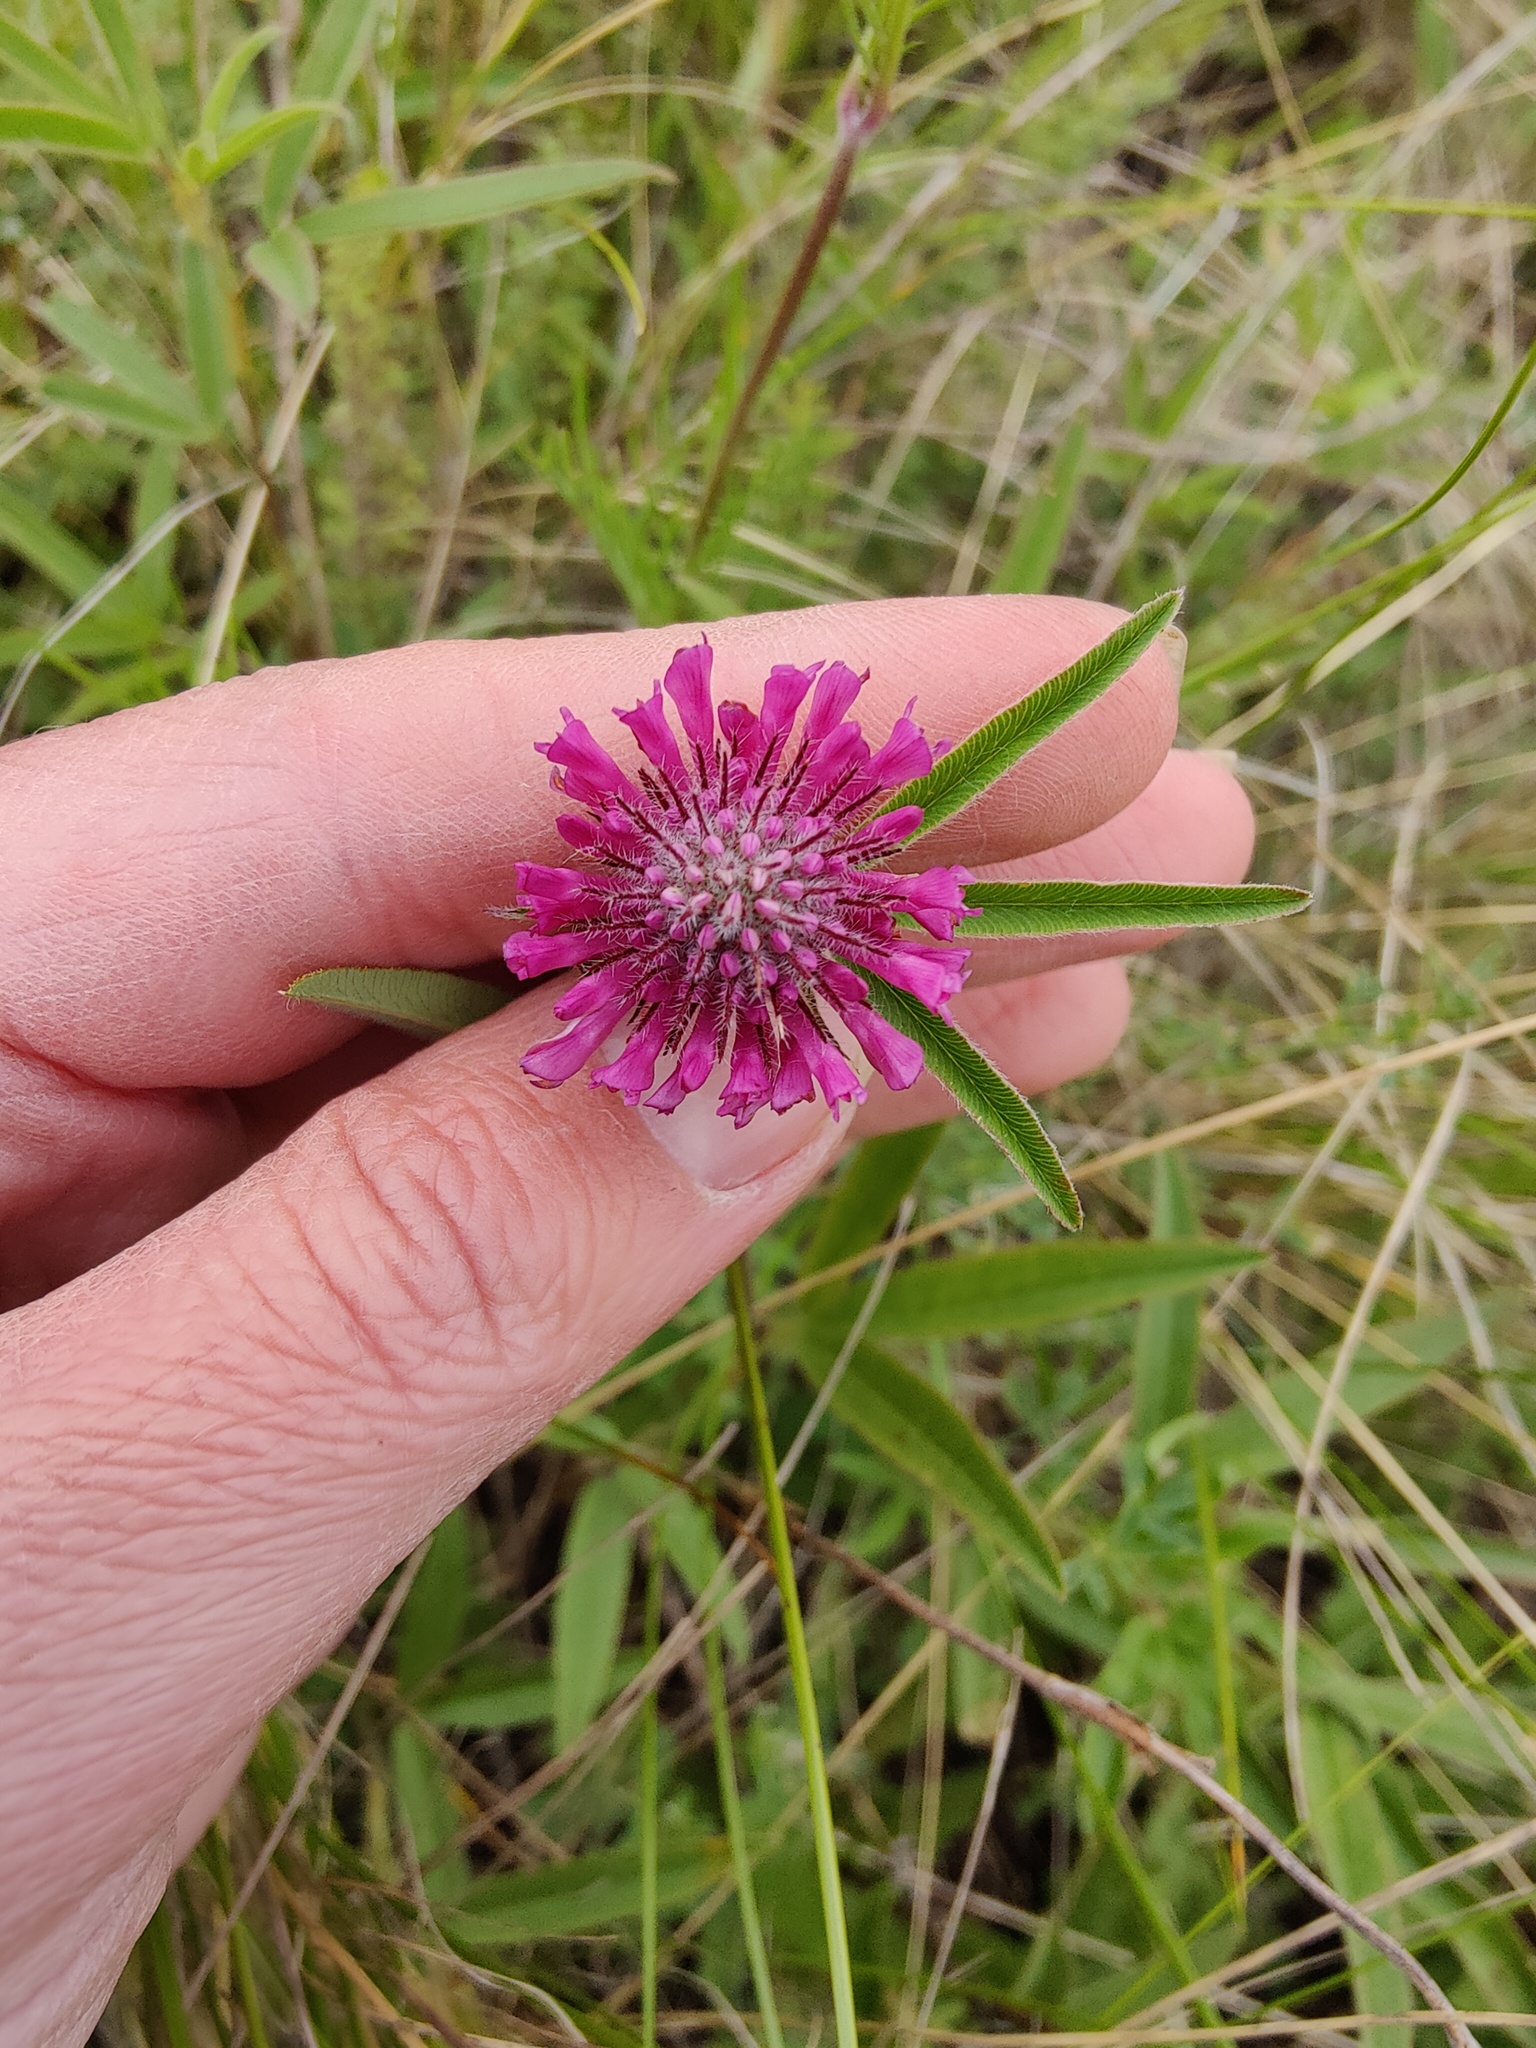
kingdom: Plantae
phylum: Tracheophyta
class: Magnoliopsida
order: Fabales
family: Fabaceae
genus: Trifolium
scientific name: Trifolium alpestre
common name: Owl-head clover
